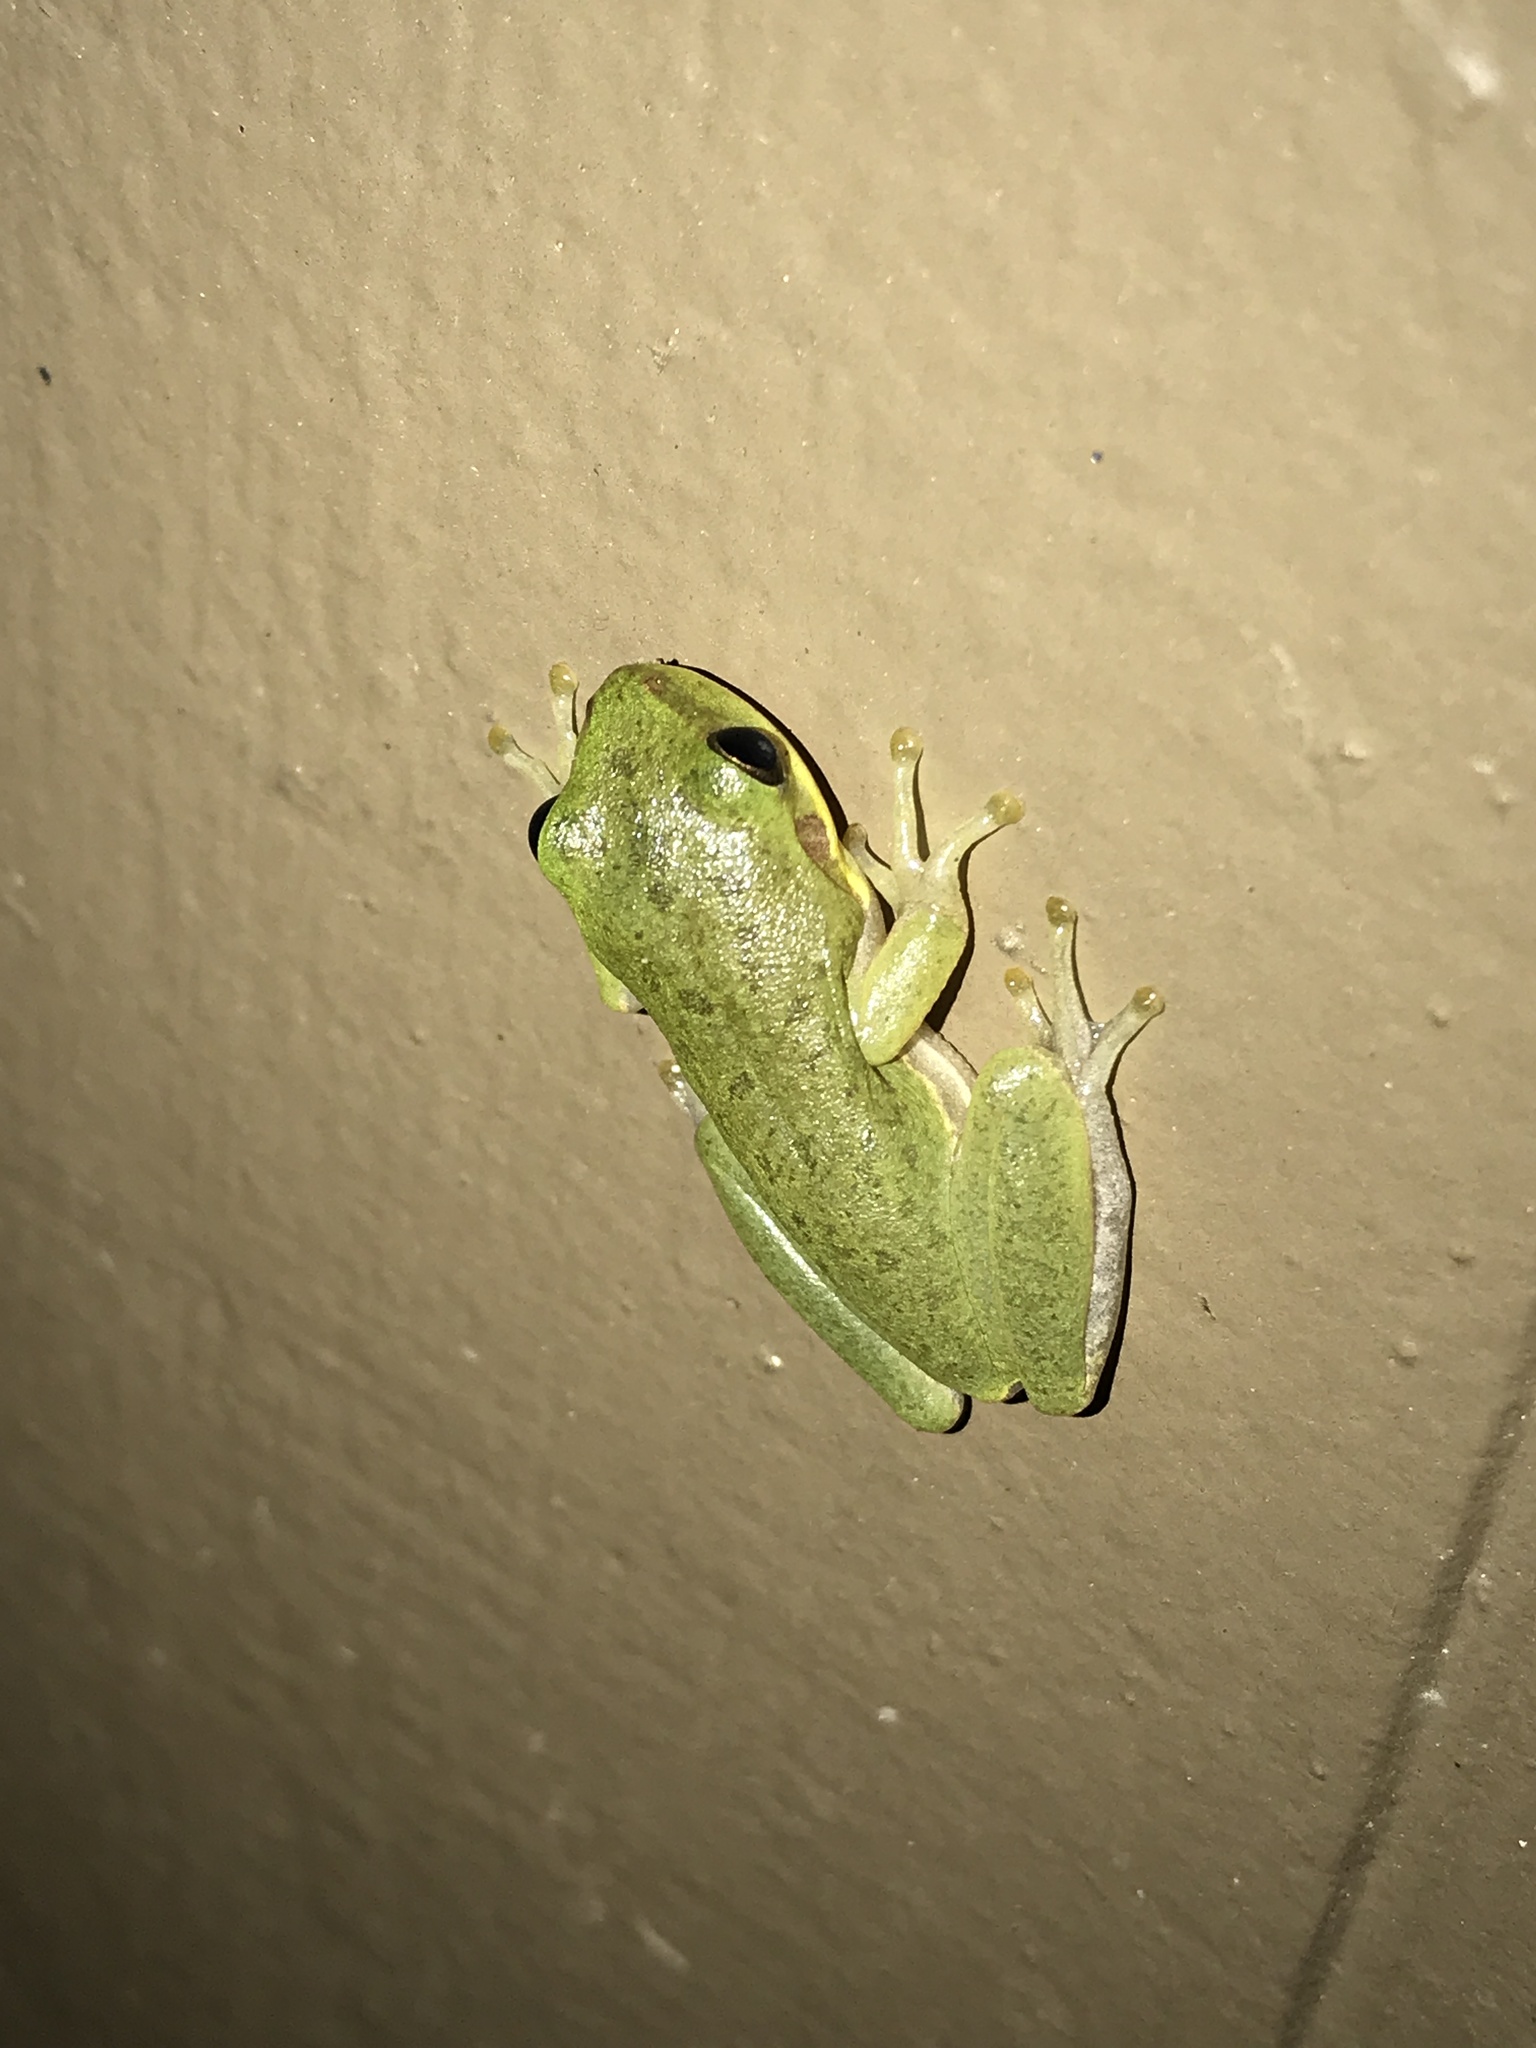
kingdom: Animalia
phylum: Chordata
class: Amphibia
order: Anura
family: Hylidae
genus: Dryophytes
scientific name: Dryophytes squirellus
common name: Squirrel treefrog
